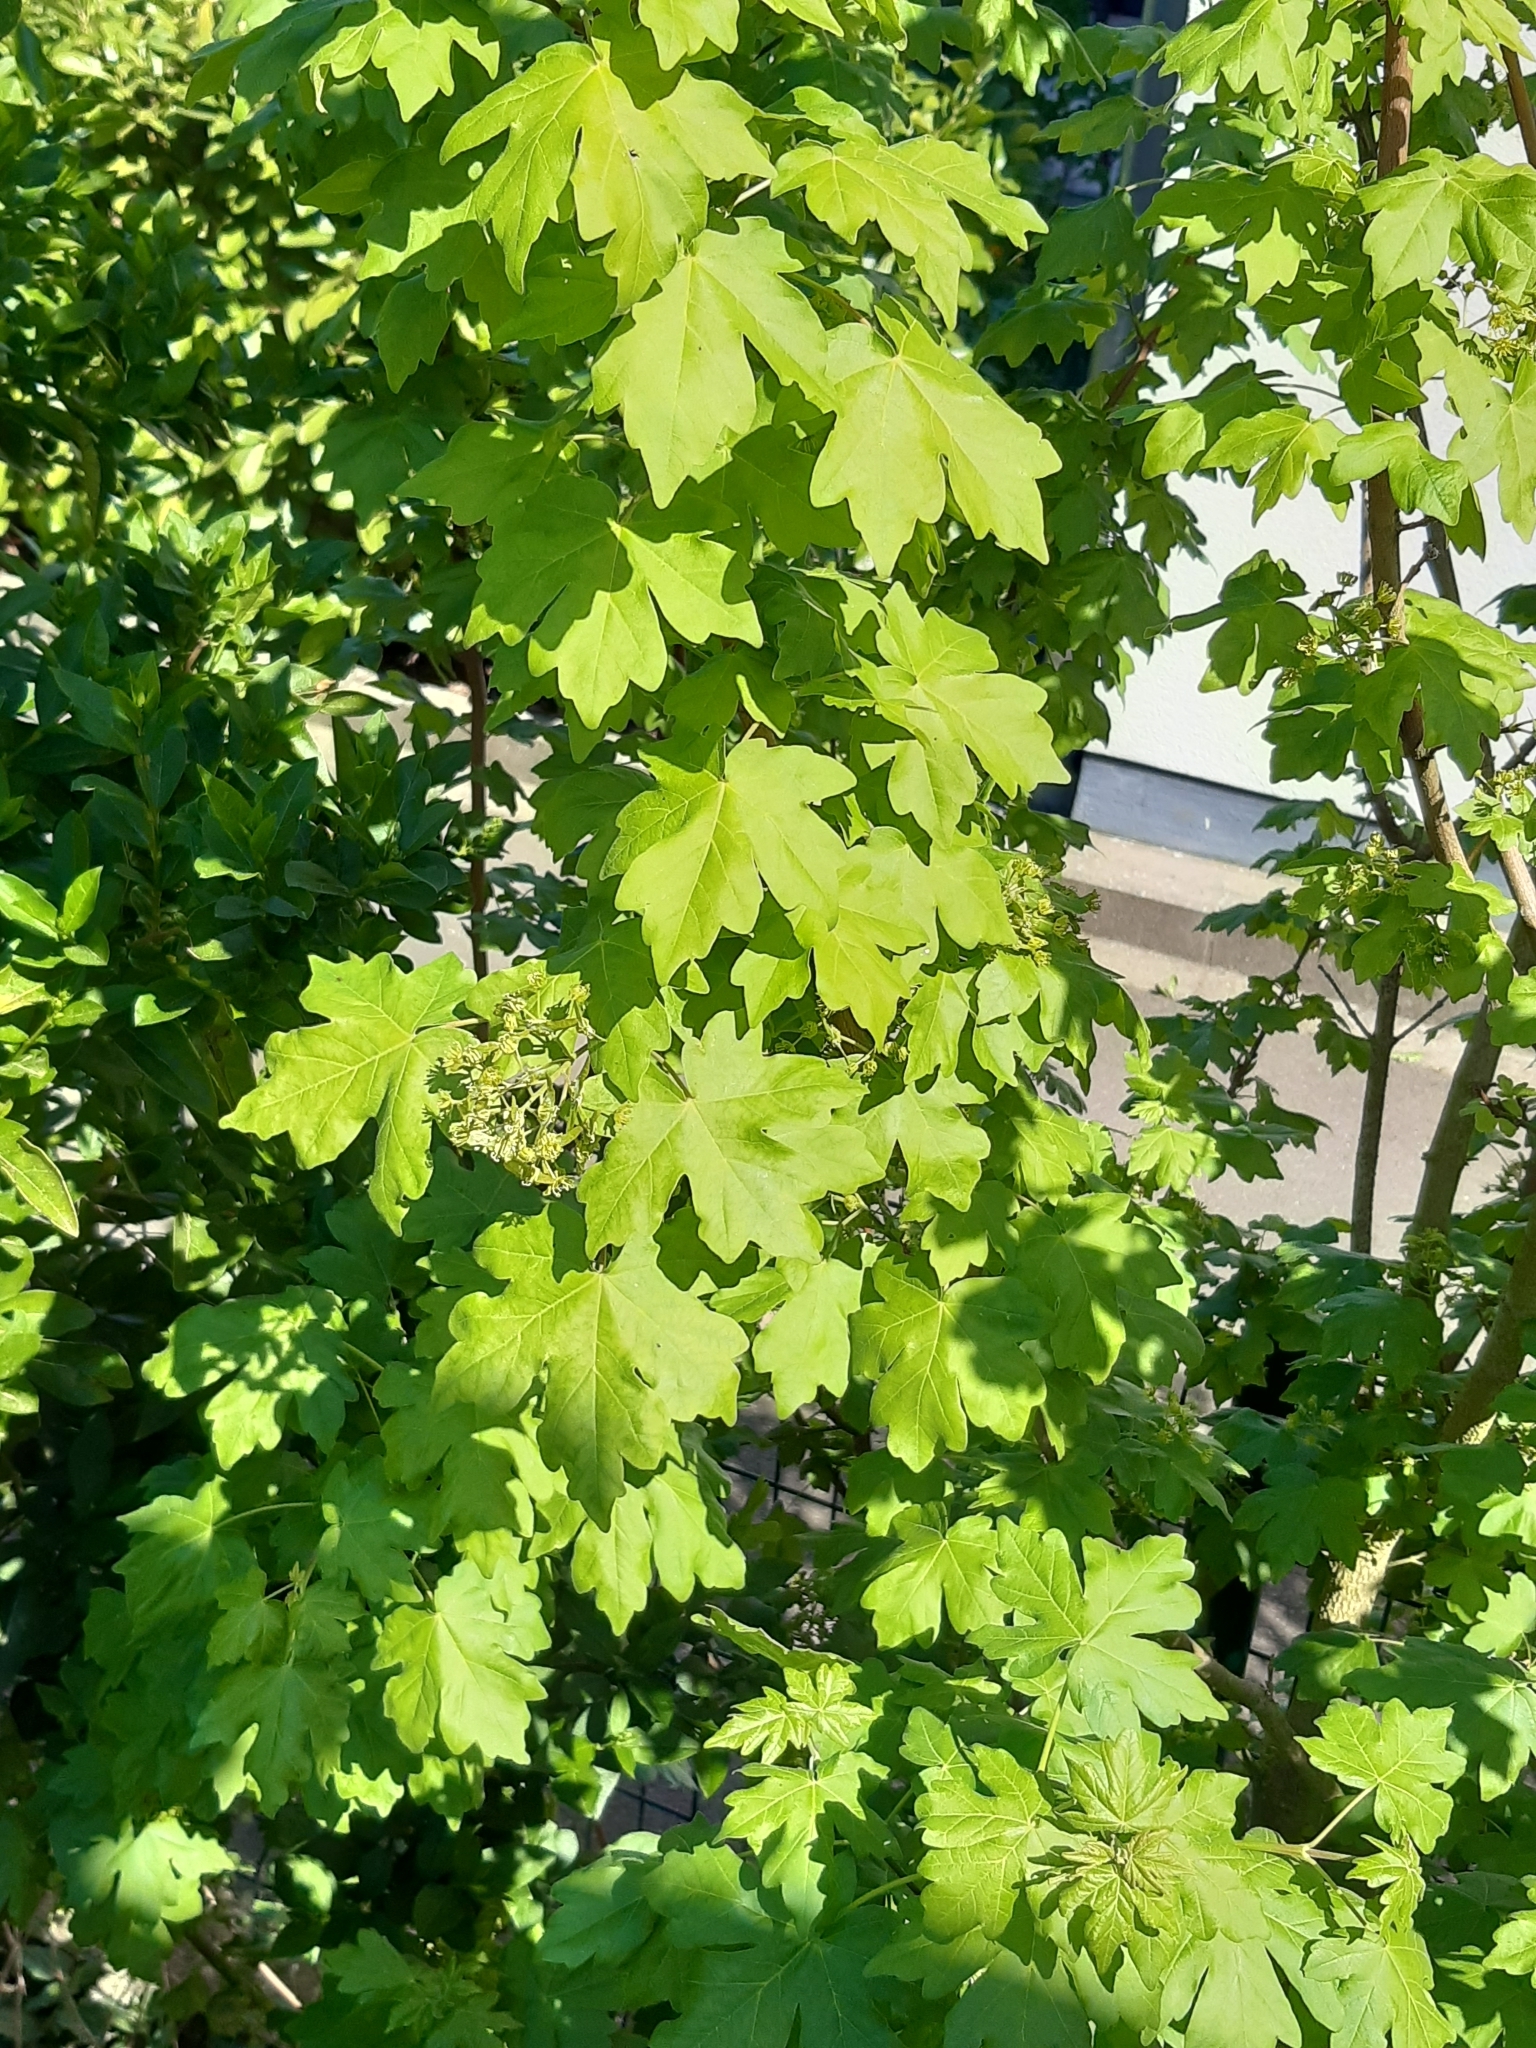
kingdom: Plantae
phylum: Tracheophyta
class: Magnoliopsida
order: Sapindales
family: Sapindaceae
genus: Acer
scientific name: Acer campestre
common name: Field maple
